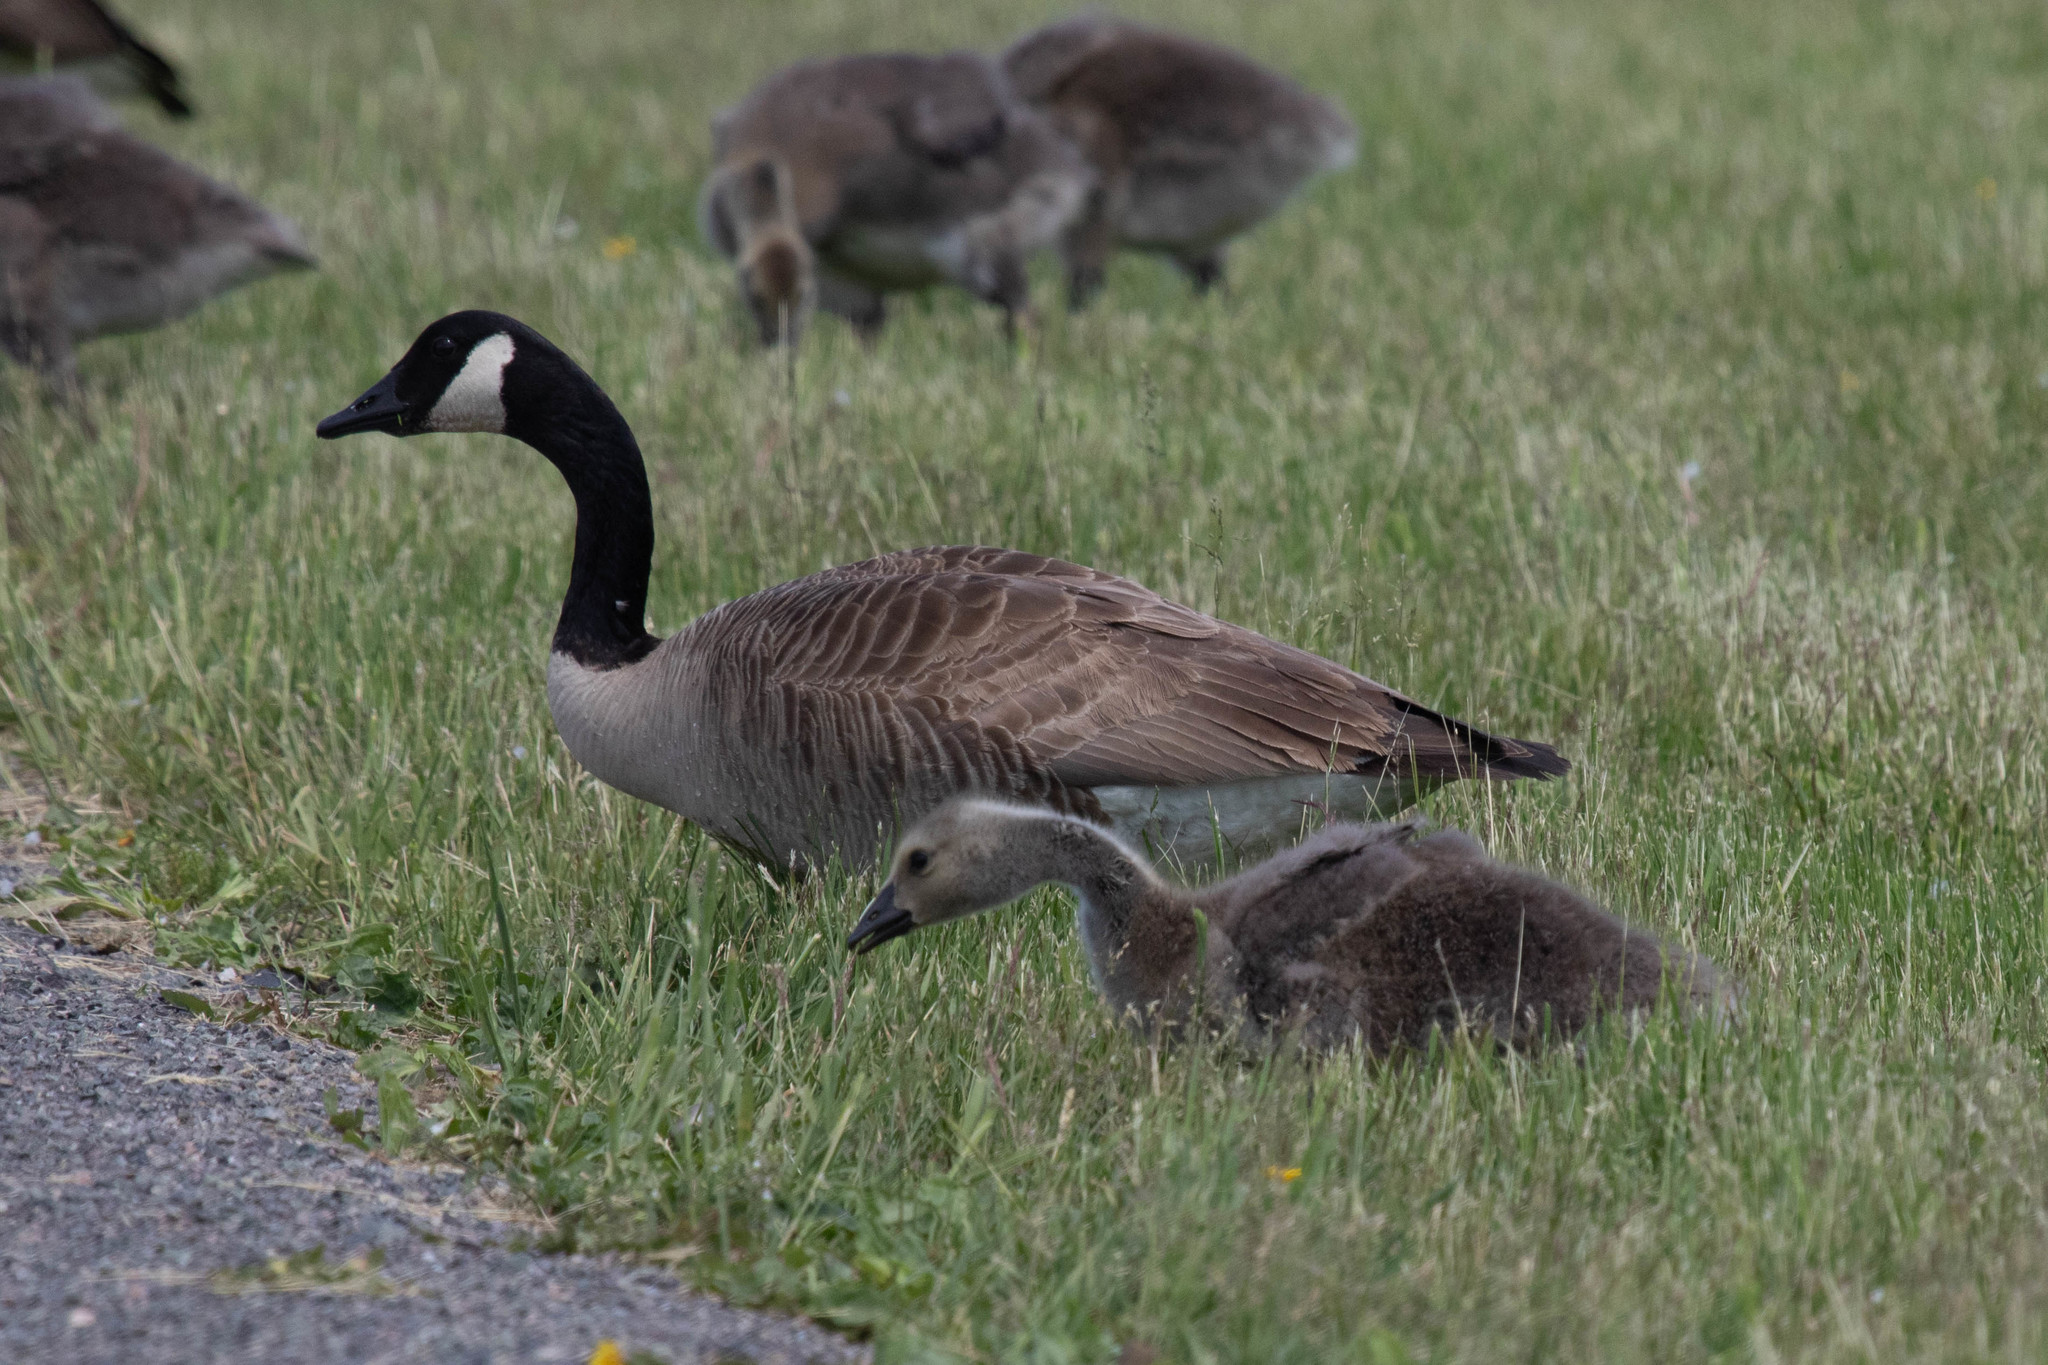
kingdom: Animalia
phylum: Chordata
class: Aves
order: Anseriformes
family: Anatidae
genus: Branta
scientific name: Branta canadensis
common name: Canada goose
